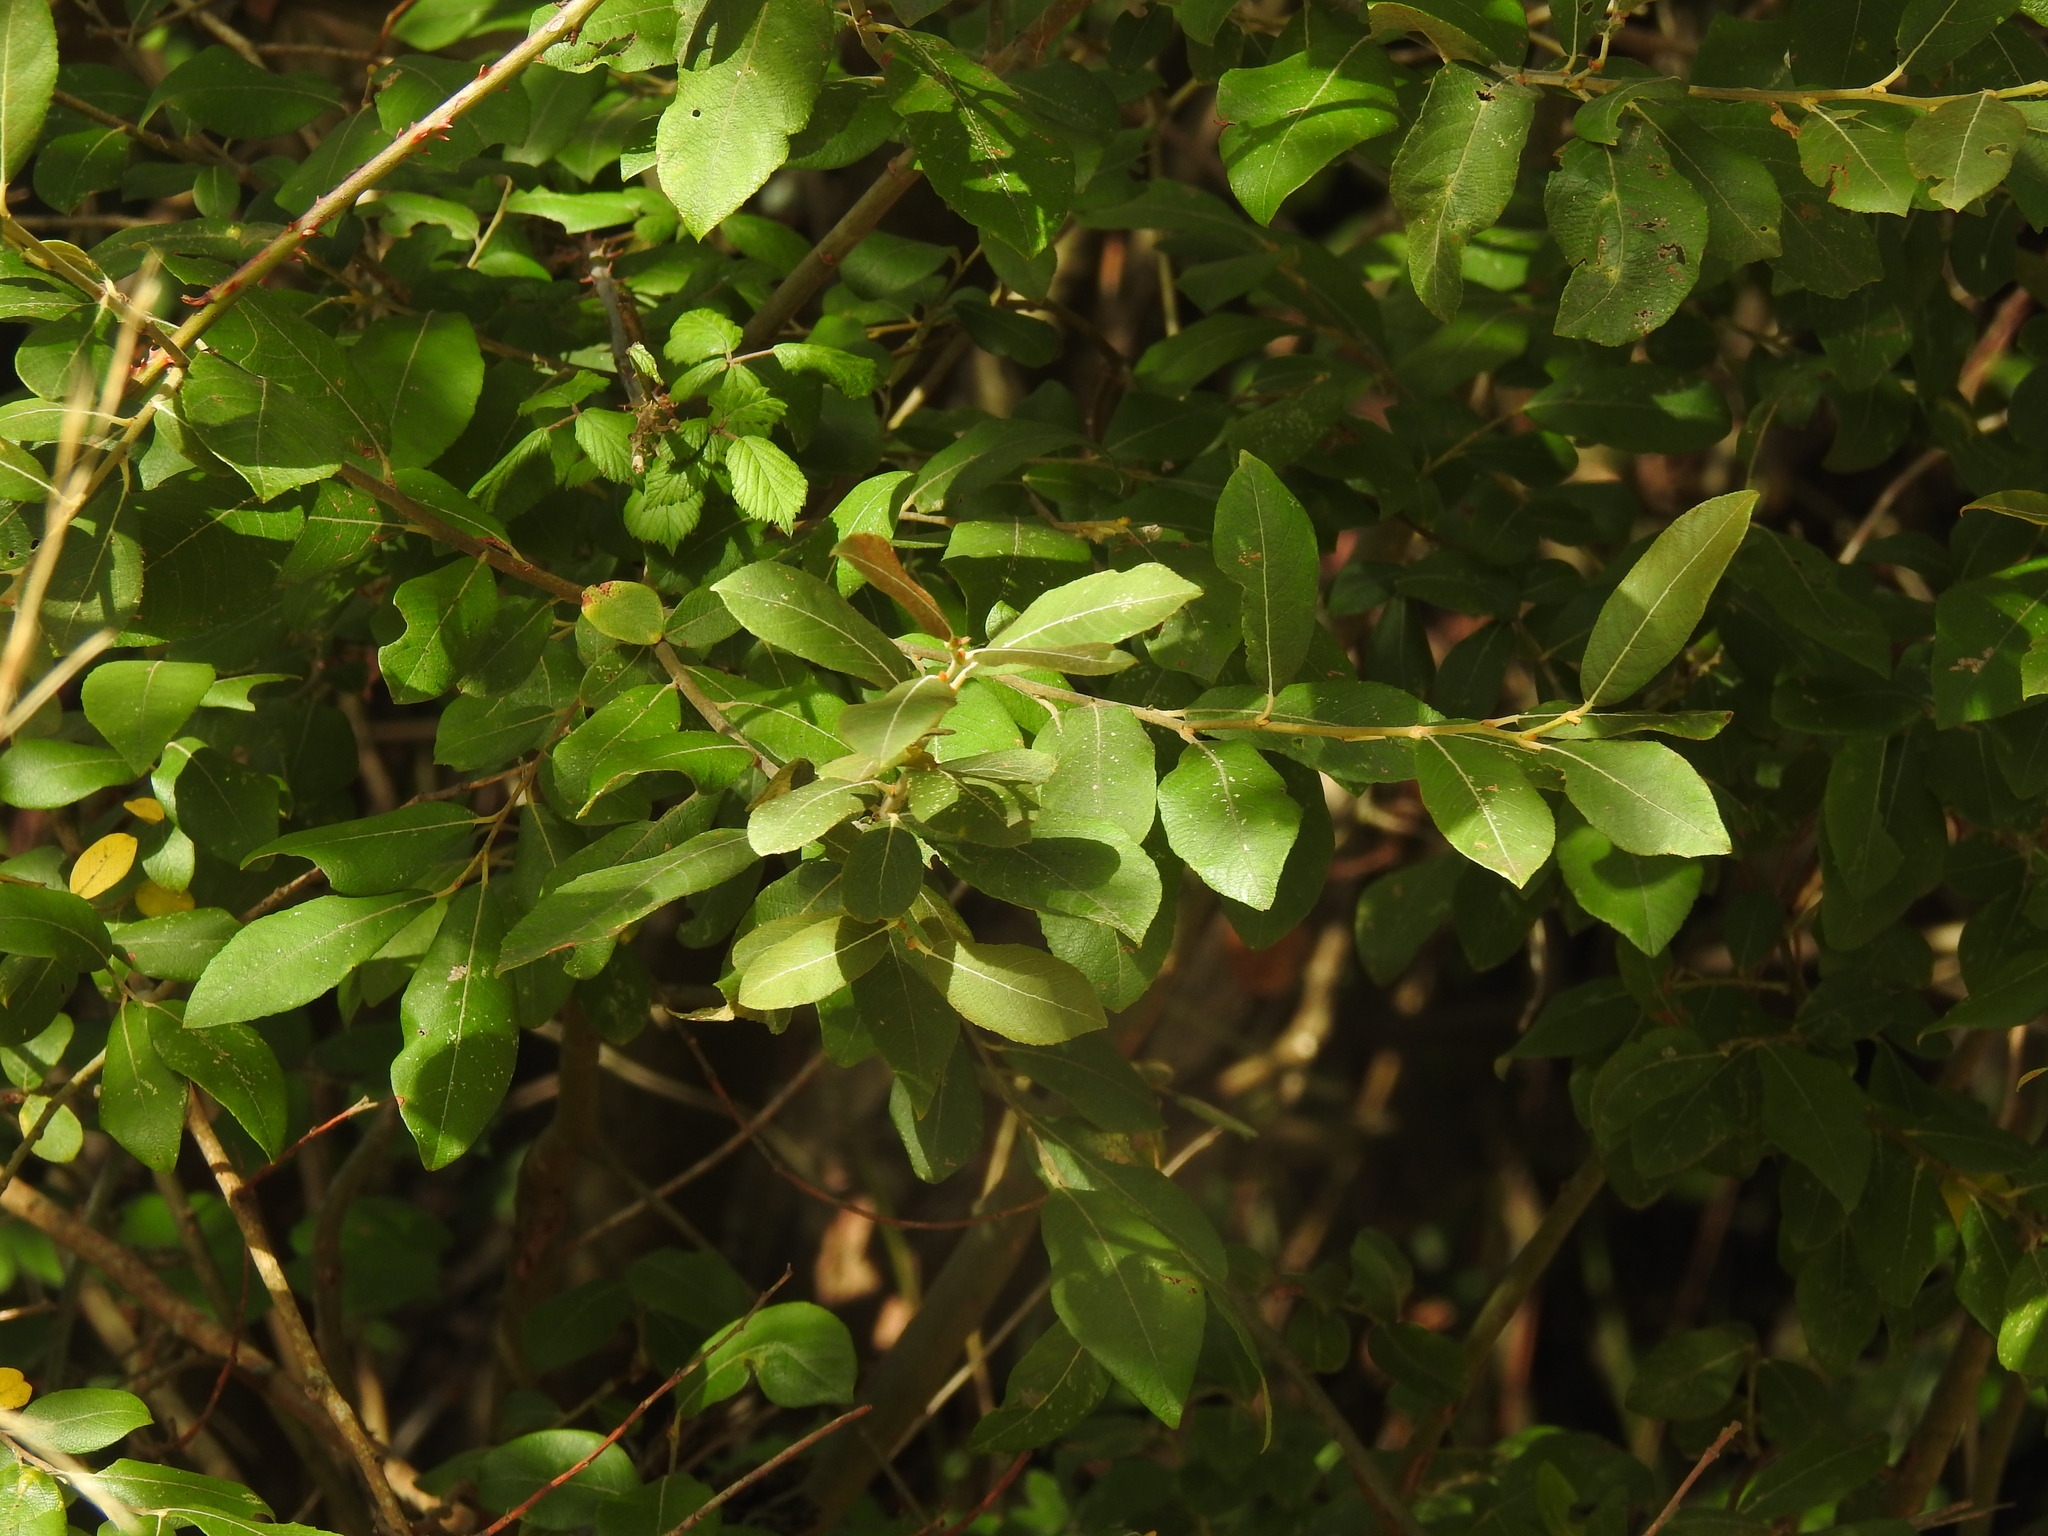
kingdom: Plantae
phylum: Tracheophyta
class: Magnoliopsida
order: Malpighiales
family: Salicaceae
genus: Salix
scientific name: Salix atrocinerea
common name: Rusty willow
